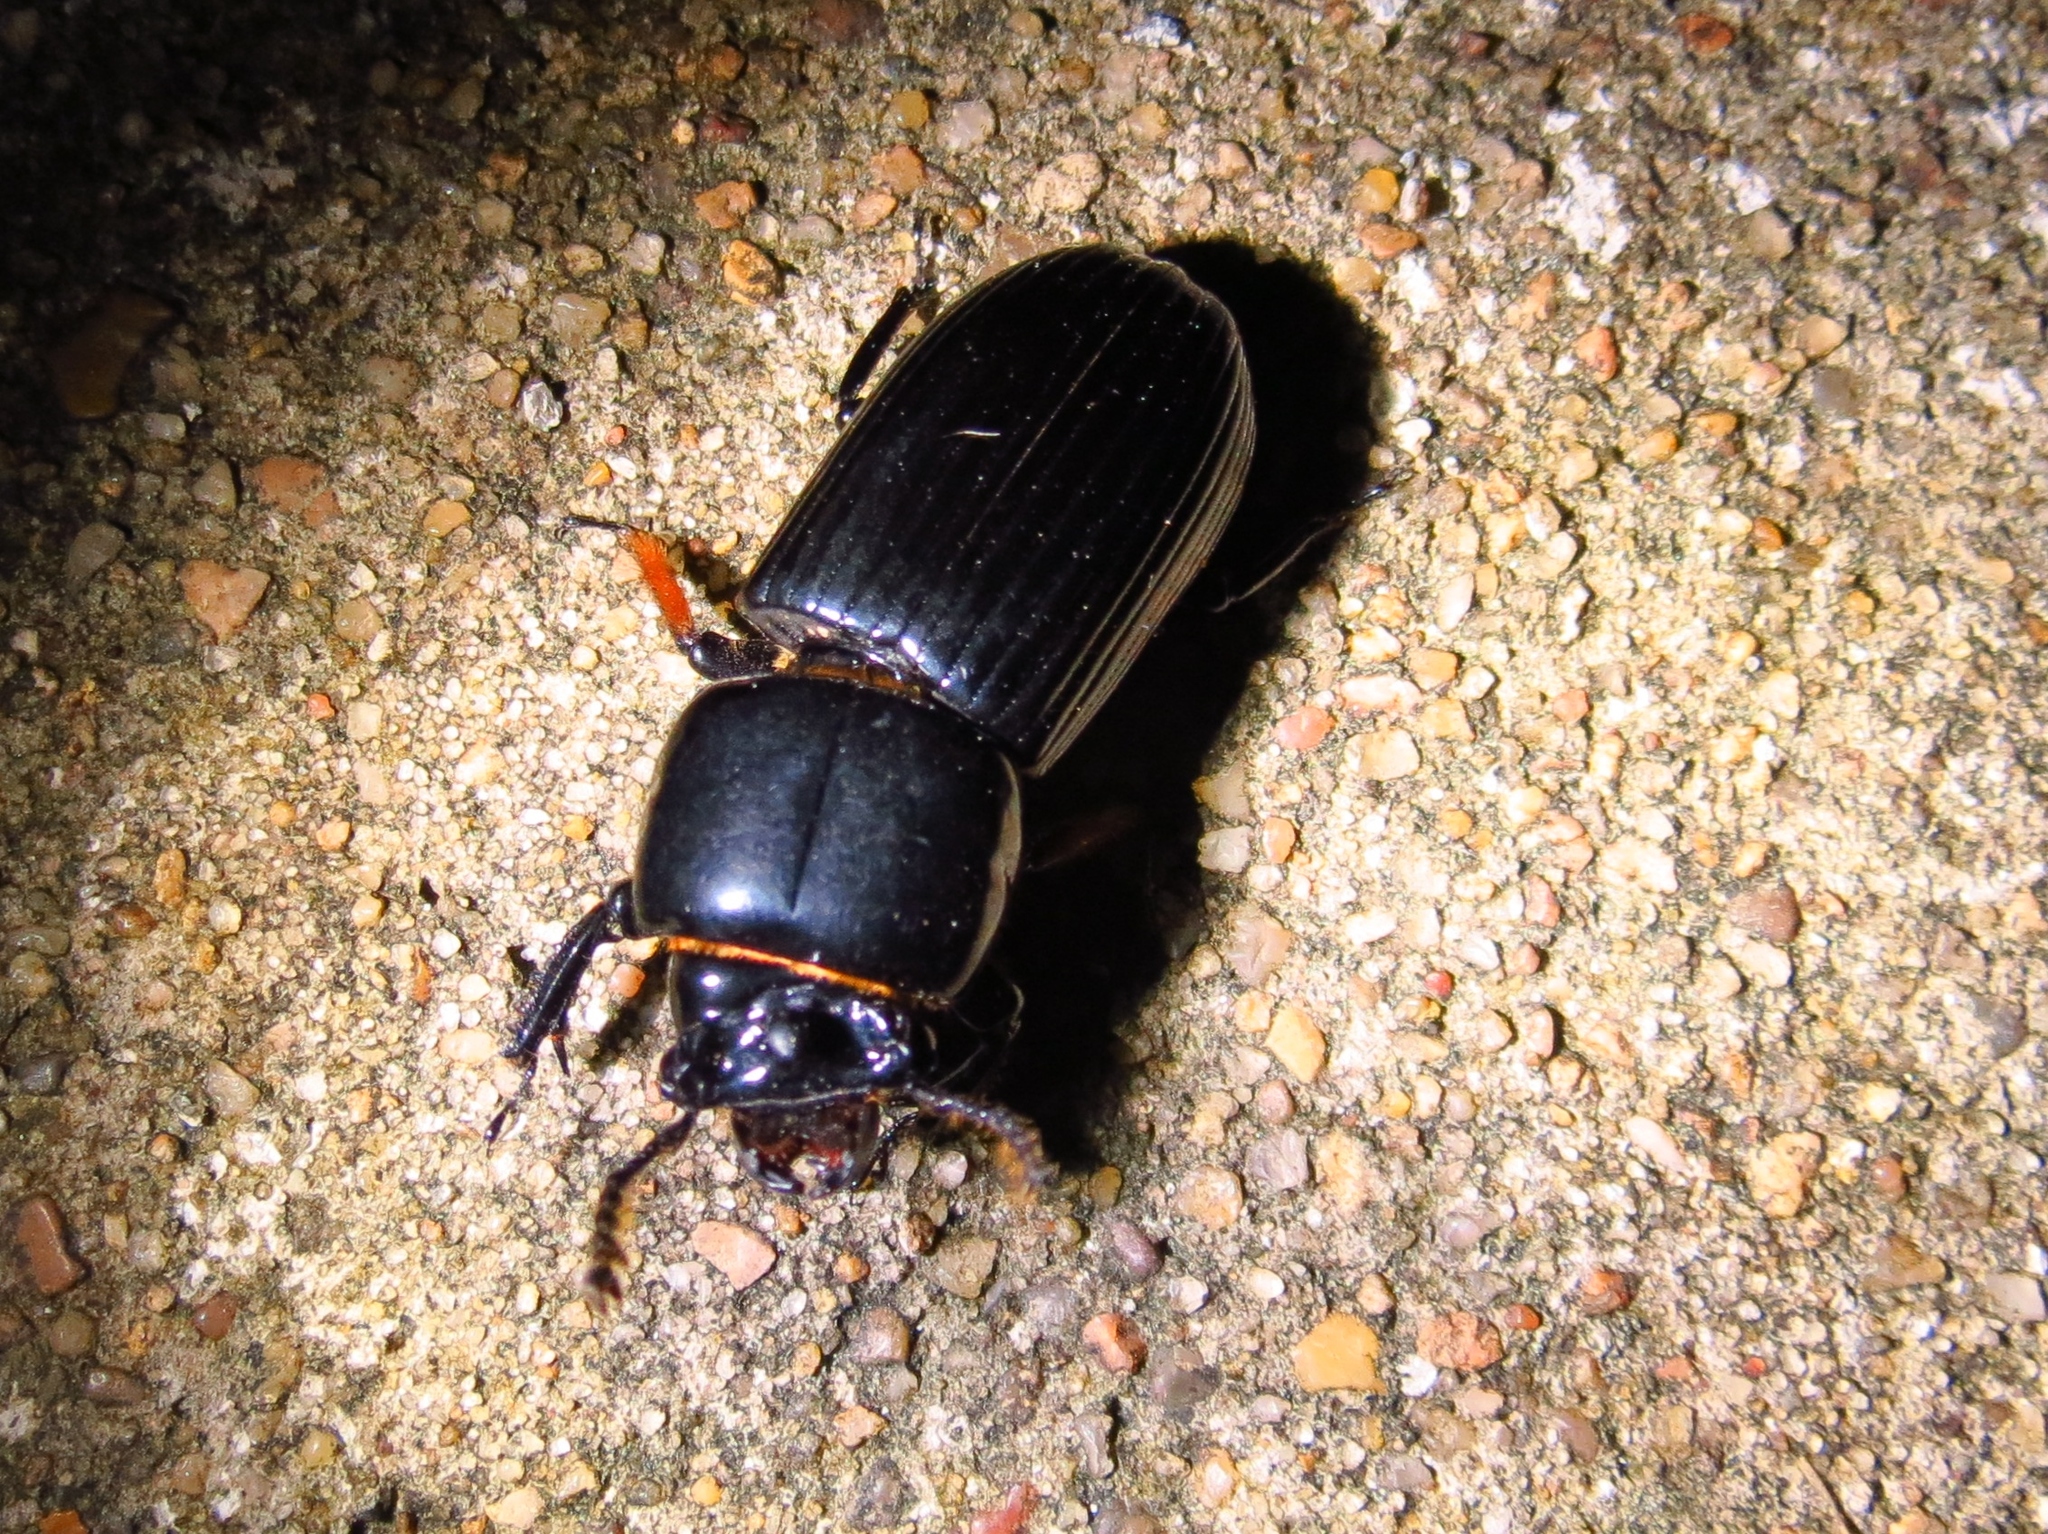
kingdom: Animalia
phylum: Arthropoda
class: Insecta
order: Coleoptera
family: Passalidae
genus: Odontotaenius
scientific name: Odontotaenius disjunctus
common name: Patent leather beetle
